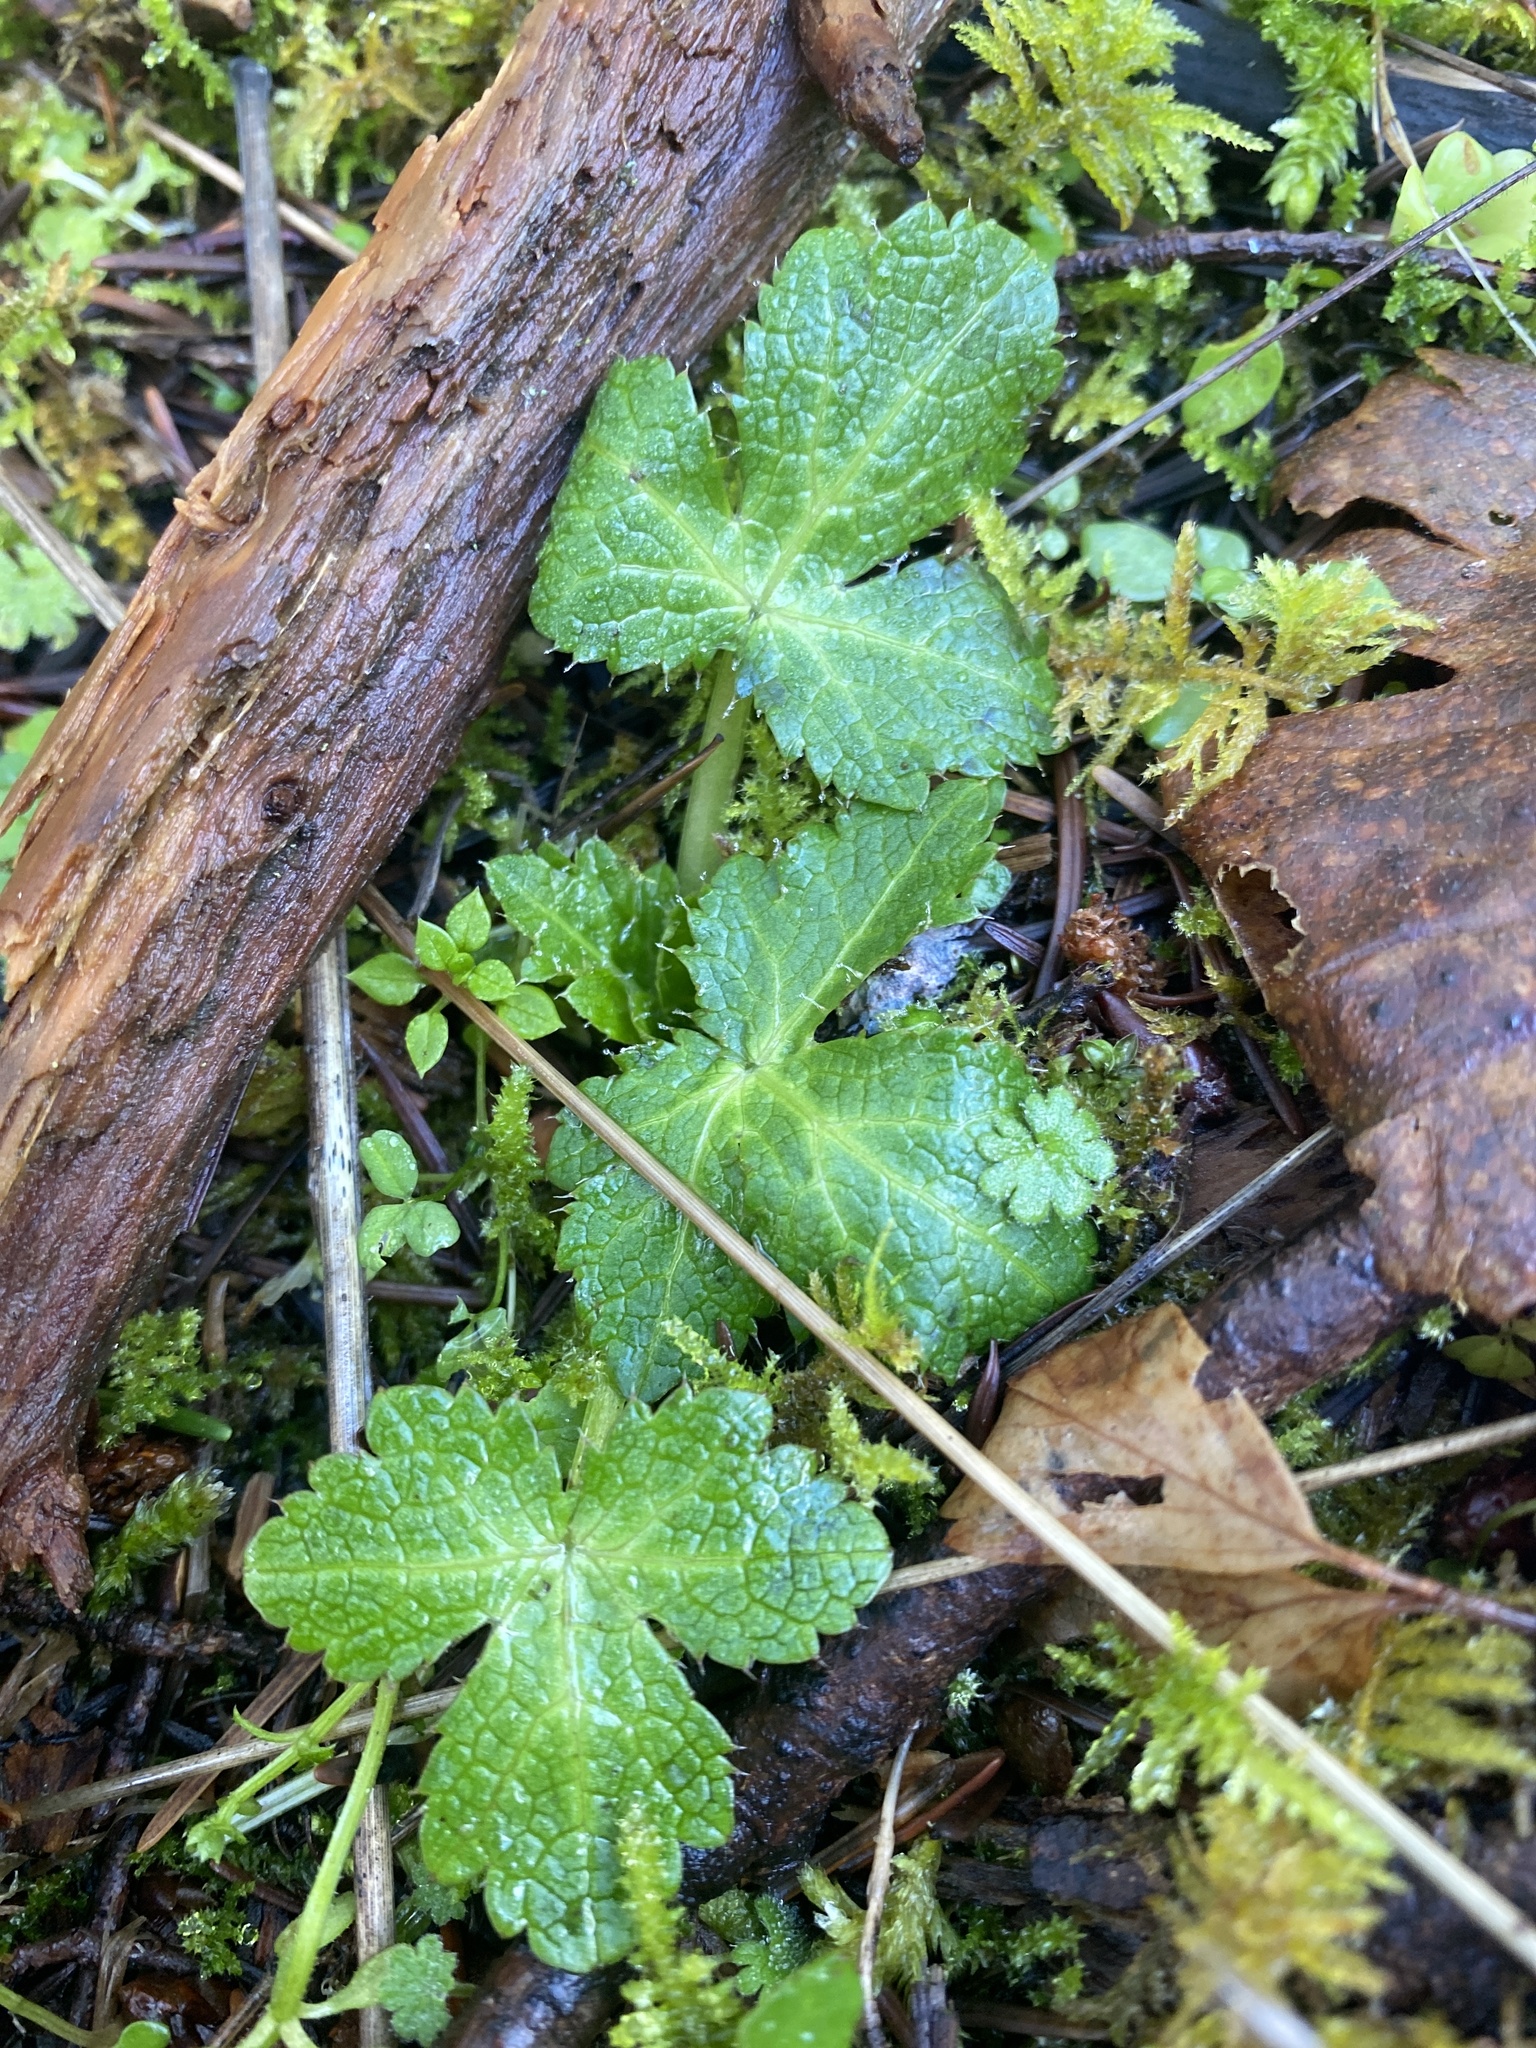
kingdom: Plantae
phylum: Tracheophyta
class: Magnoliopsida
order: Apiales
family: Apiaceae
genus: Sanicula
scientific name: Sanicula crassicaulis
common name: Western snakeroot
